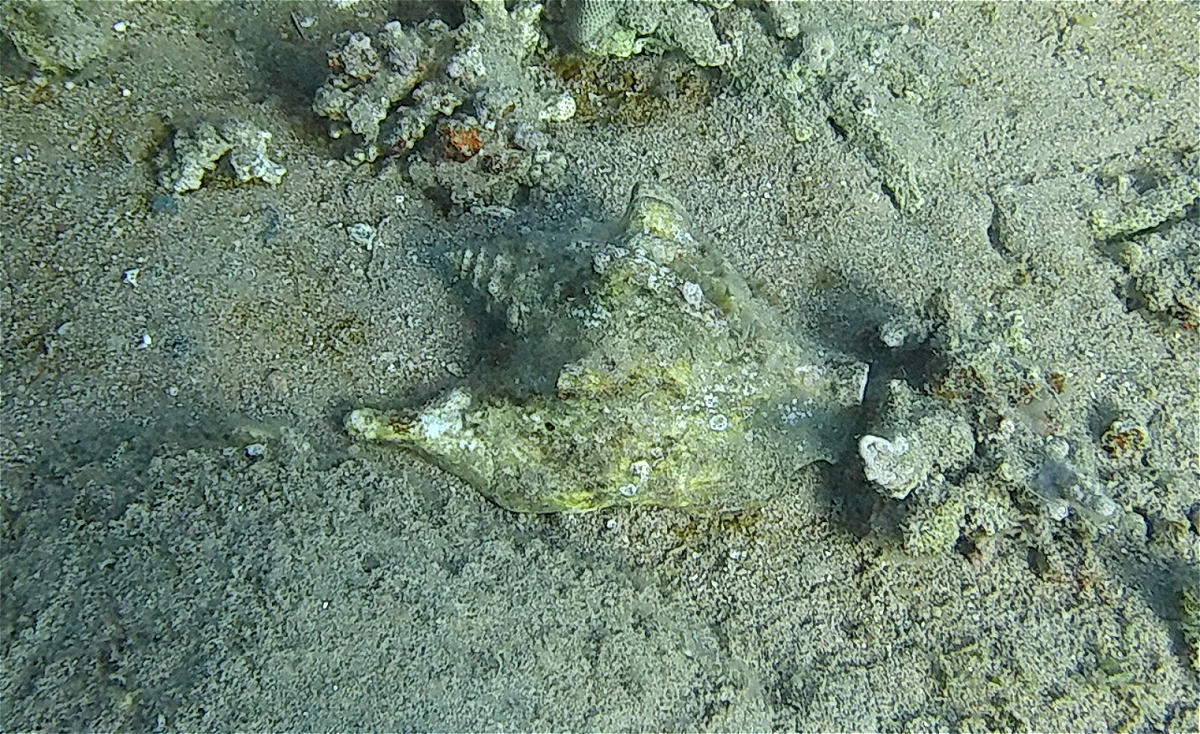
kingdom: Animalia
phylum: Mollusca
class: Gastropoda
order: Littorinimorpha
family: Strombidae
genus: Tricornis
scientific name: Tricornis tricornis
